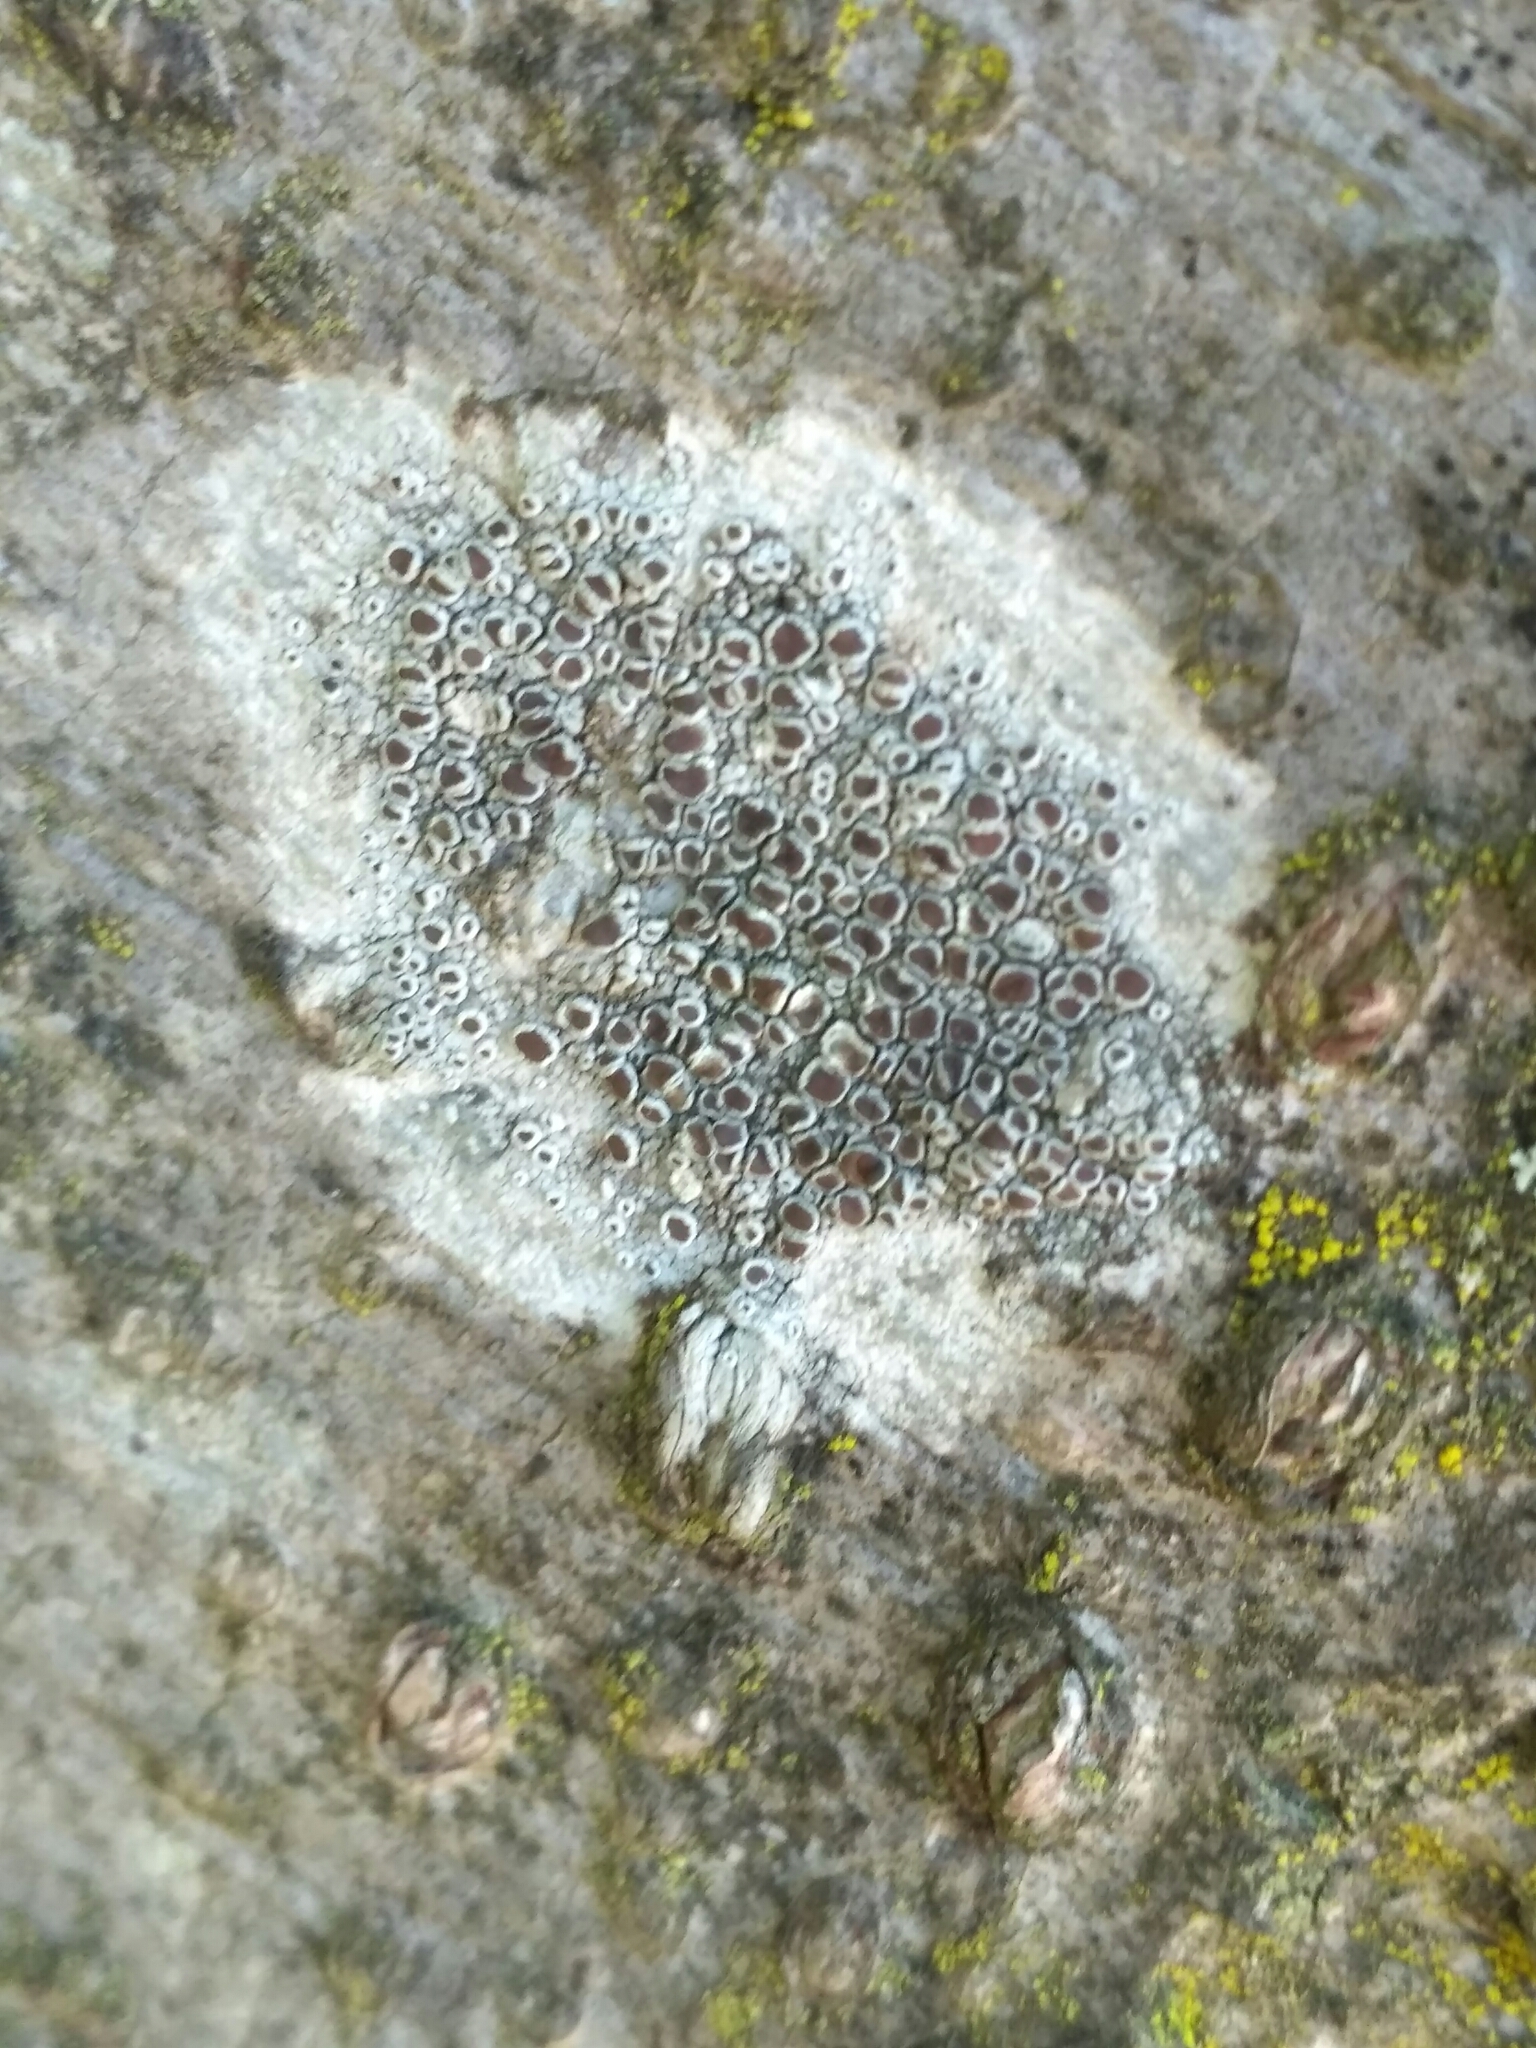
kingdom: Fungi
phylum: Ascomycota
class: Lecanoromycetes
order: Lecanorales
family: Lecanoraceae
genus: Lecanora
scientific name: Lecanora argentata
